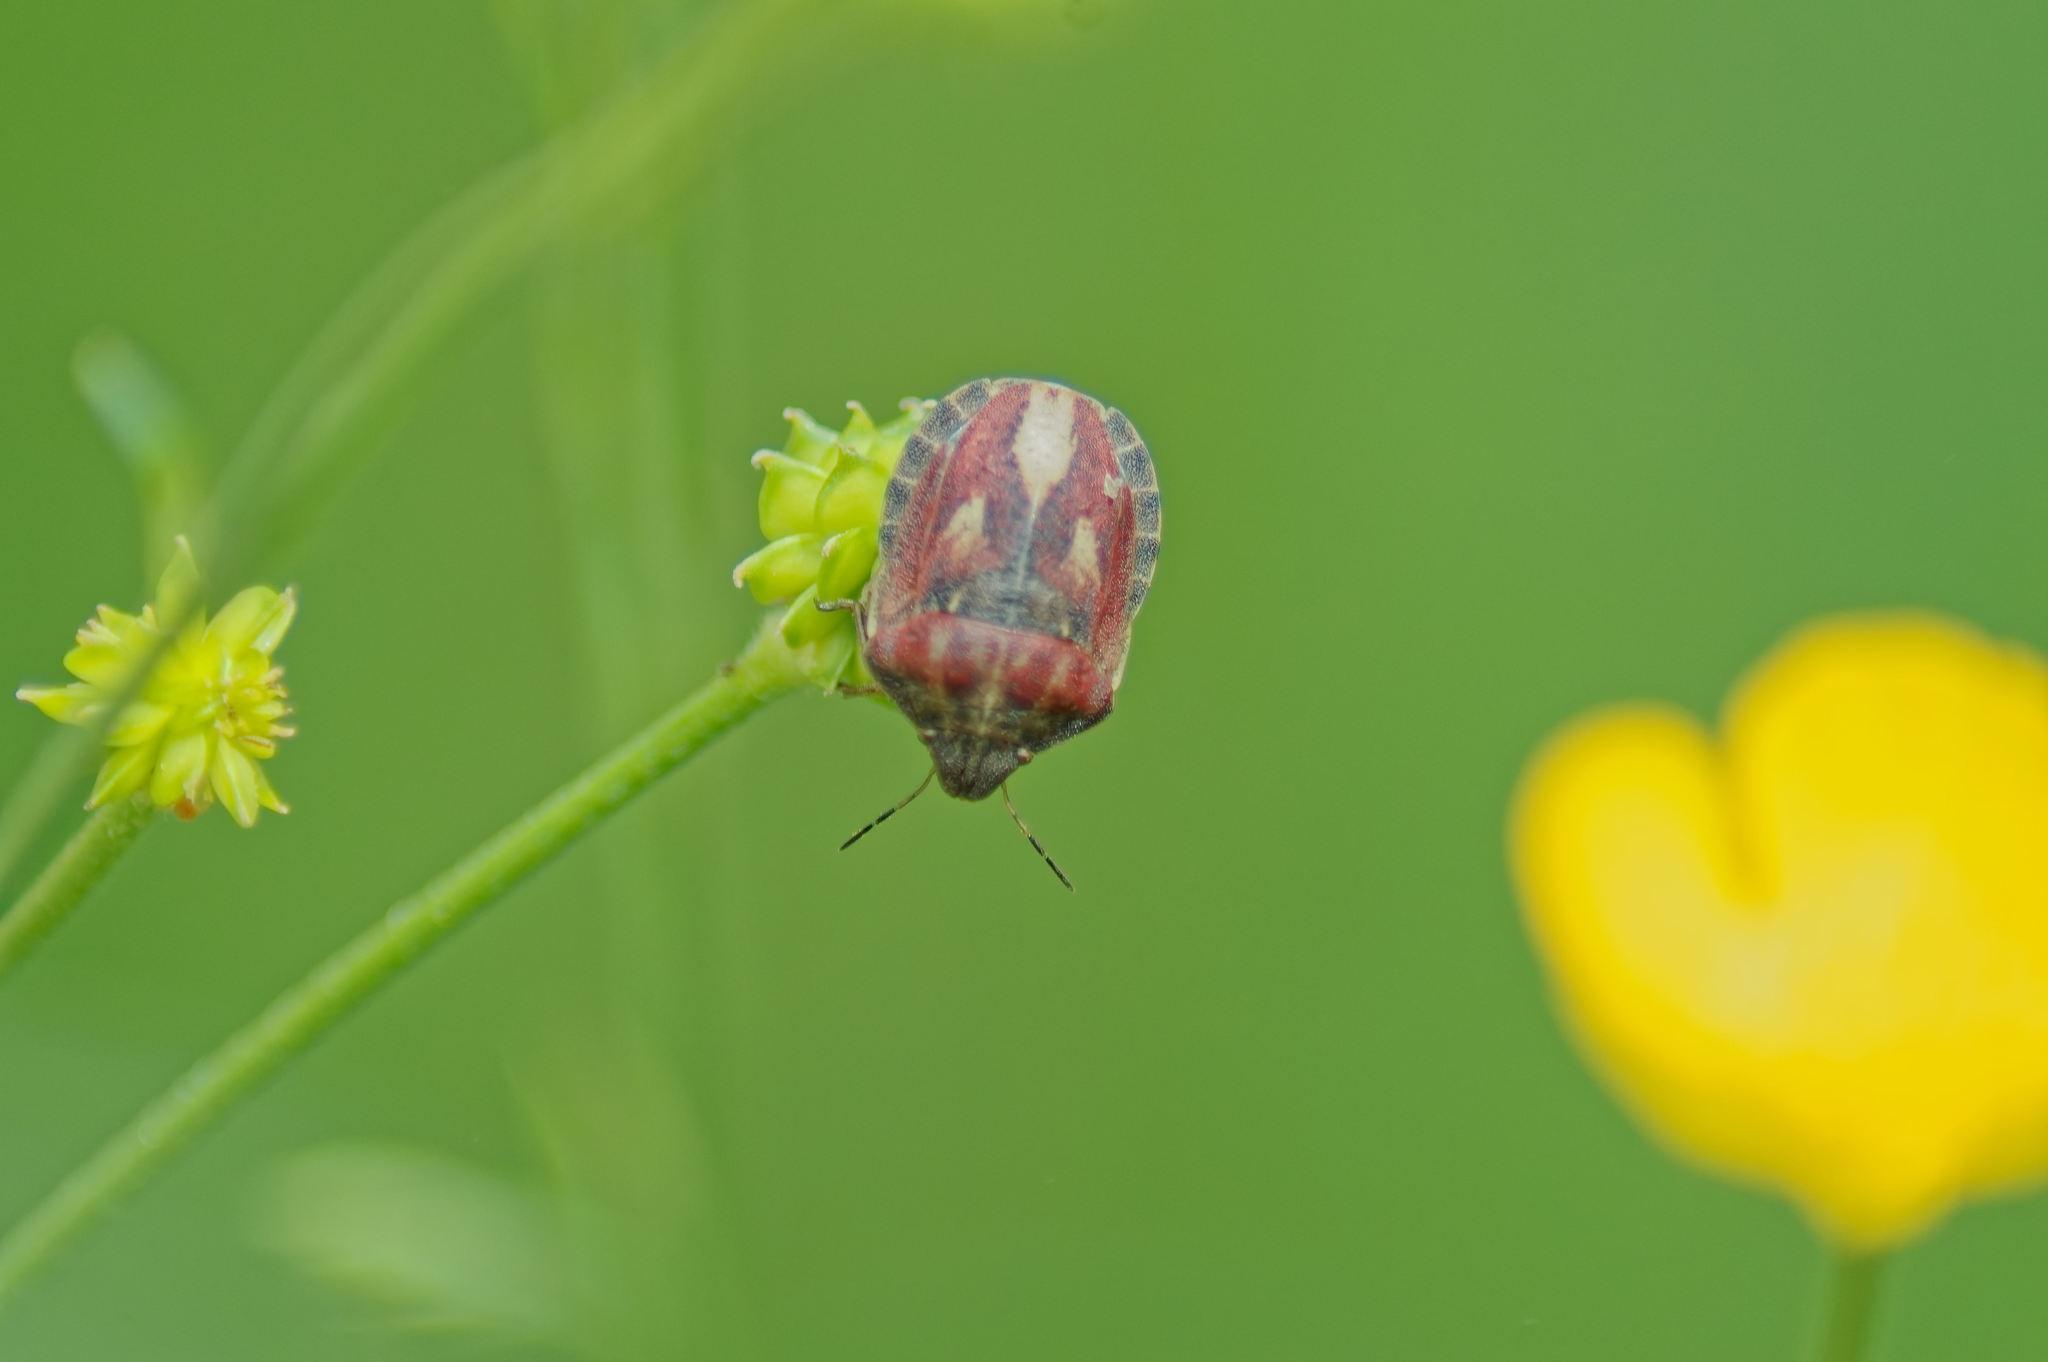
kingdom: Animalia
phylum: Arthropoda
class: Insecta
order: Hemiptera
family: Scutelleridae
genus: Eurygaster
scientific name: Eurygaster testudinaria
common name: Tortoise bug
